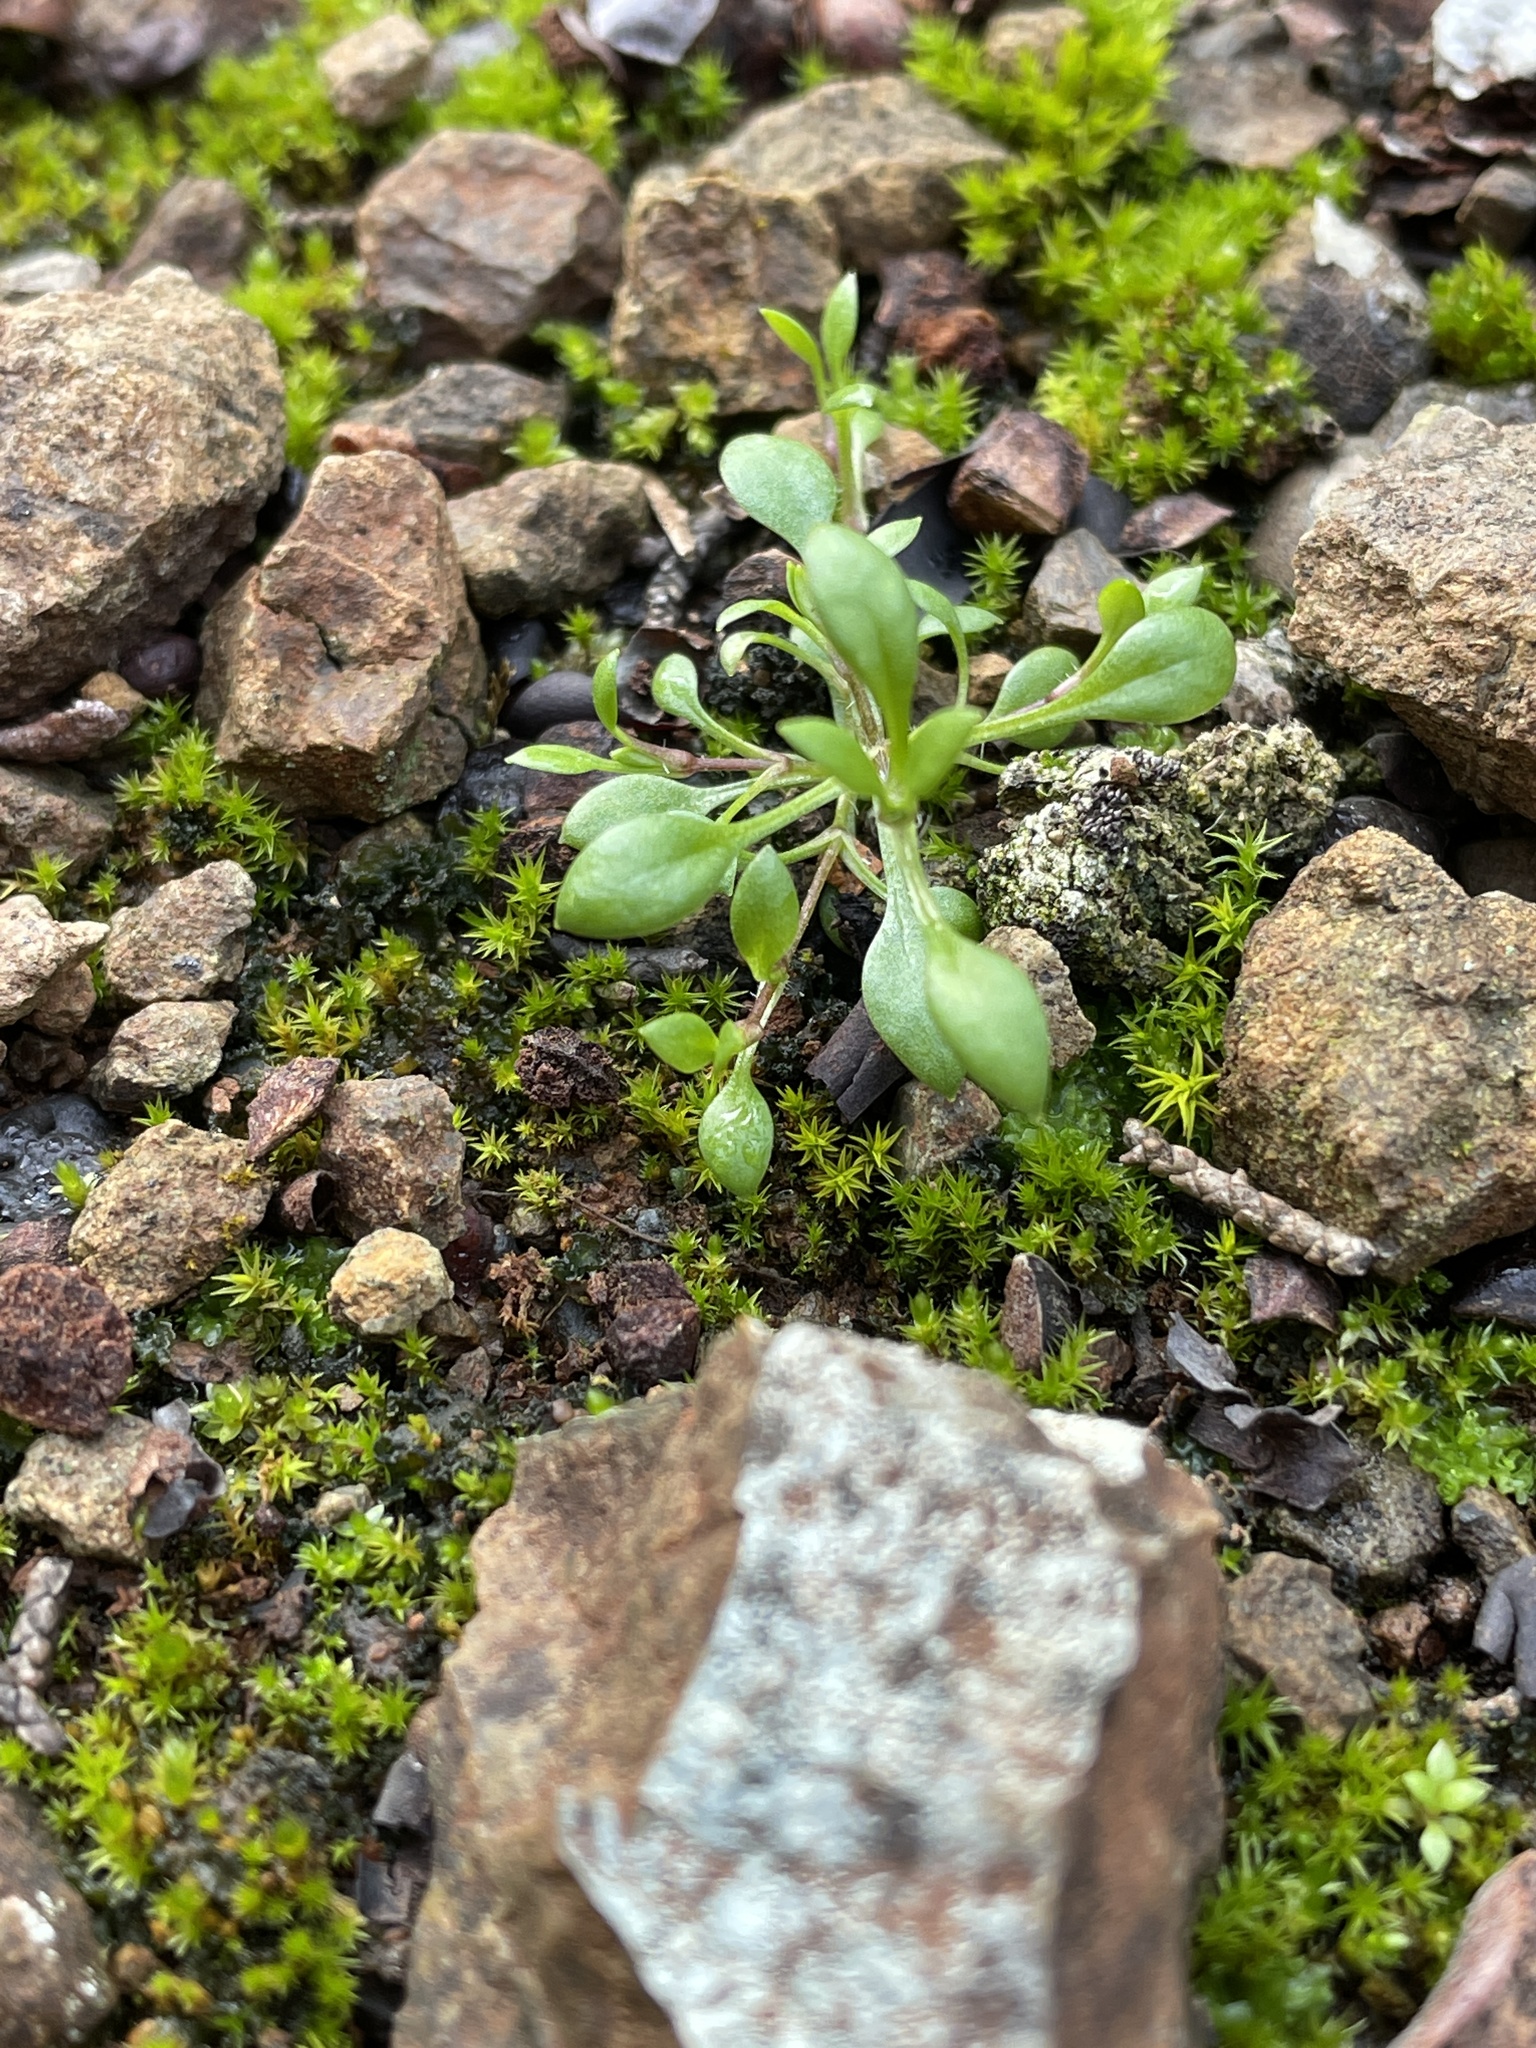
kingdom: Plantae
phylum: Tracheophyta
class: Magnoliopsida
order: Caryophyllales
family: Caryophyllaceae
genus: Stellaria
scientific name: Stellaria nitens
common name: Shining starwort
